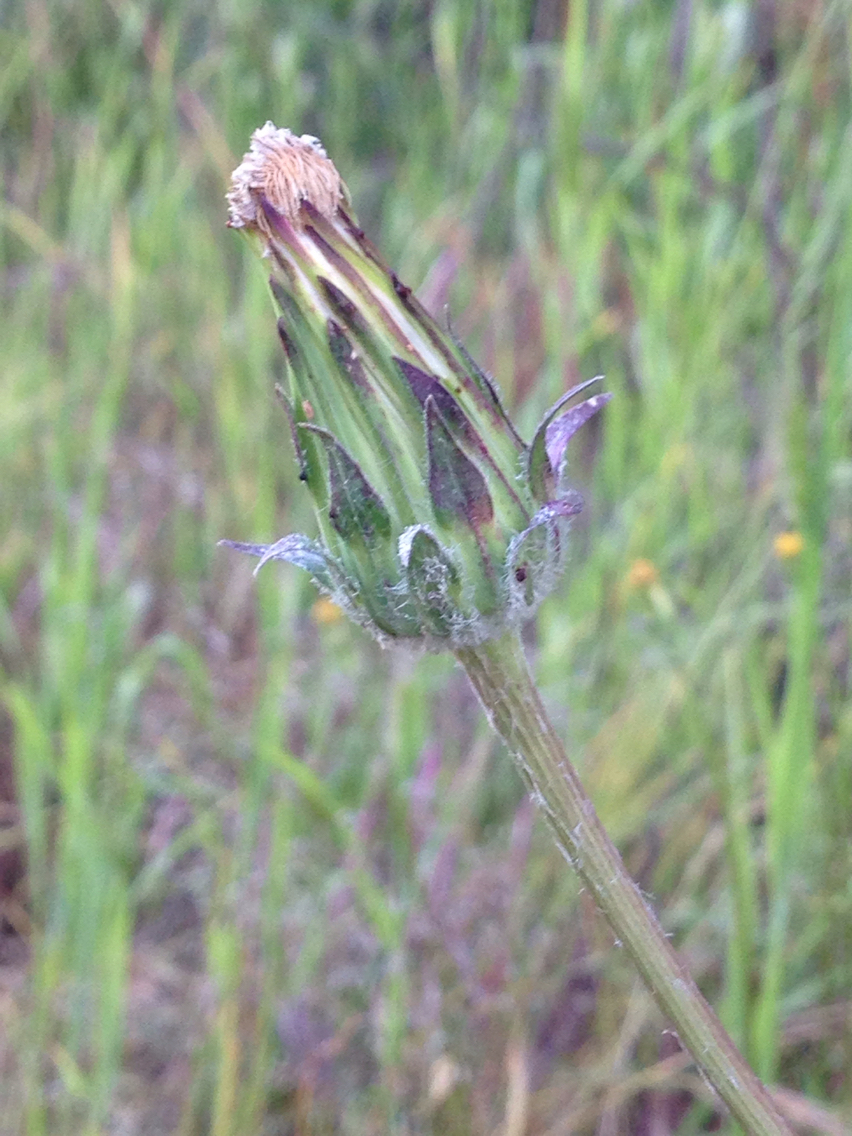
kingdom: Plantae
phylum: Tracheophyta
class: Magnoliopsida
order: Asterales
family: Asteraceae
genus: Agoseris
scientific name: Agoseris grandiflora
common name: Grassland agoseris
